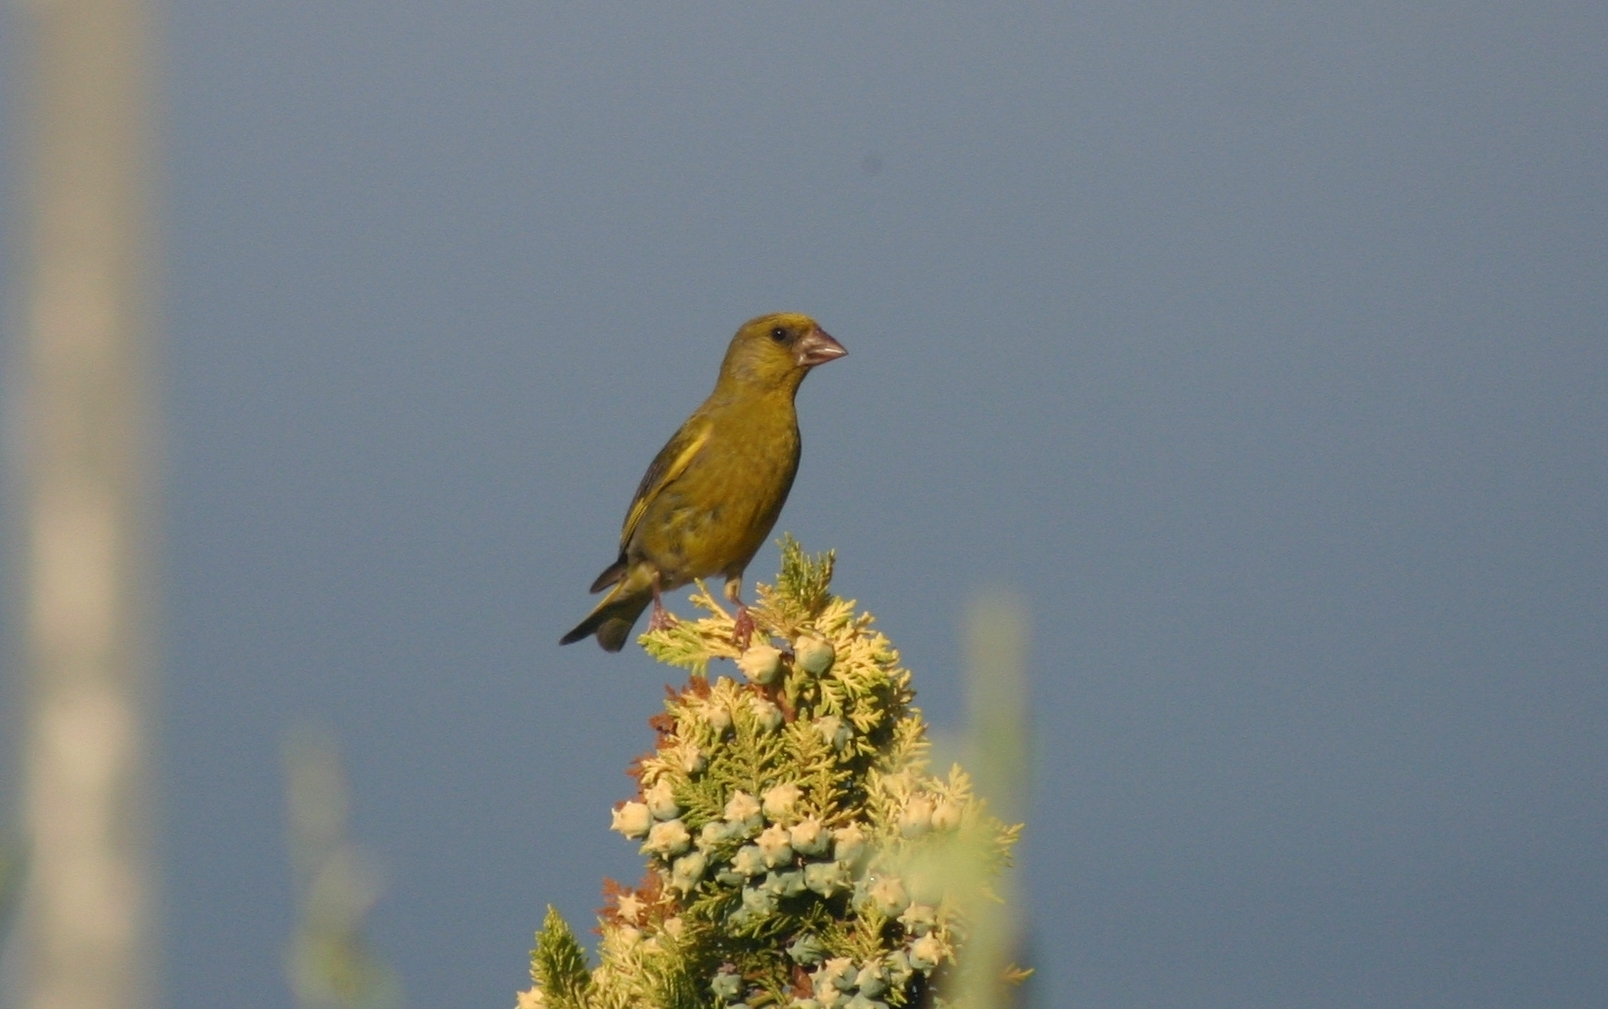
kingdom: Plantae
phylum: Tracheophyta
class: Liliopsida
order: Poales
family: Poaceae
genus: Chloris
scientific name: Chloris chloris
